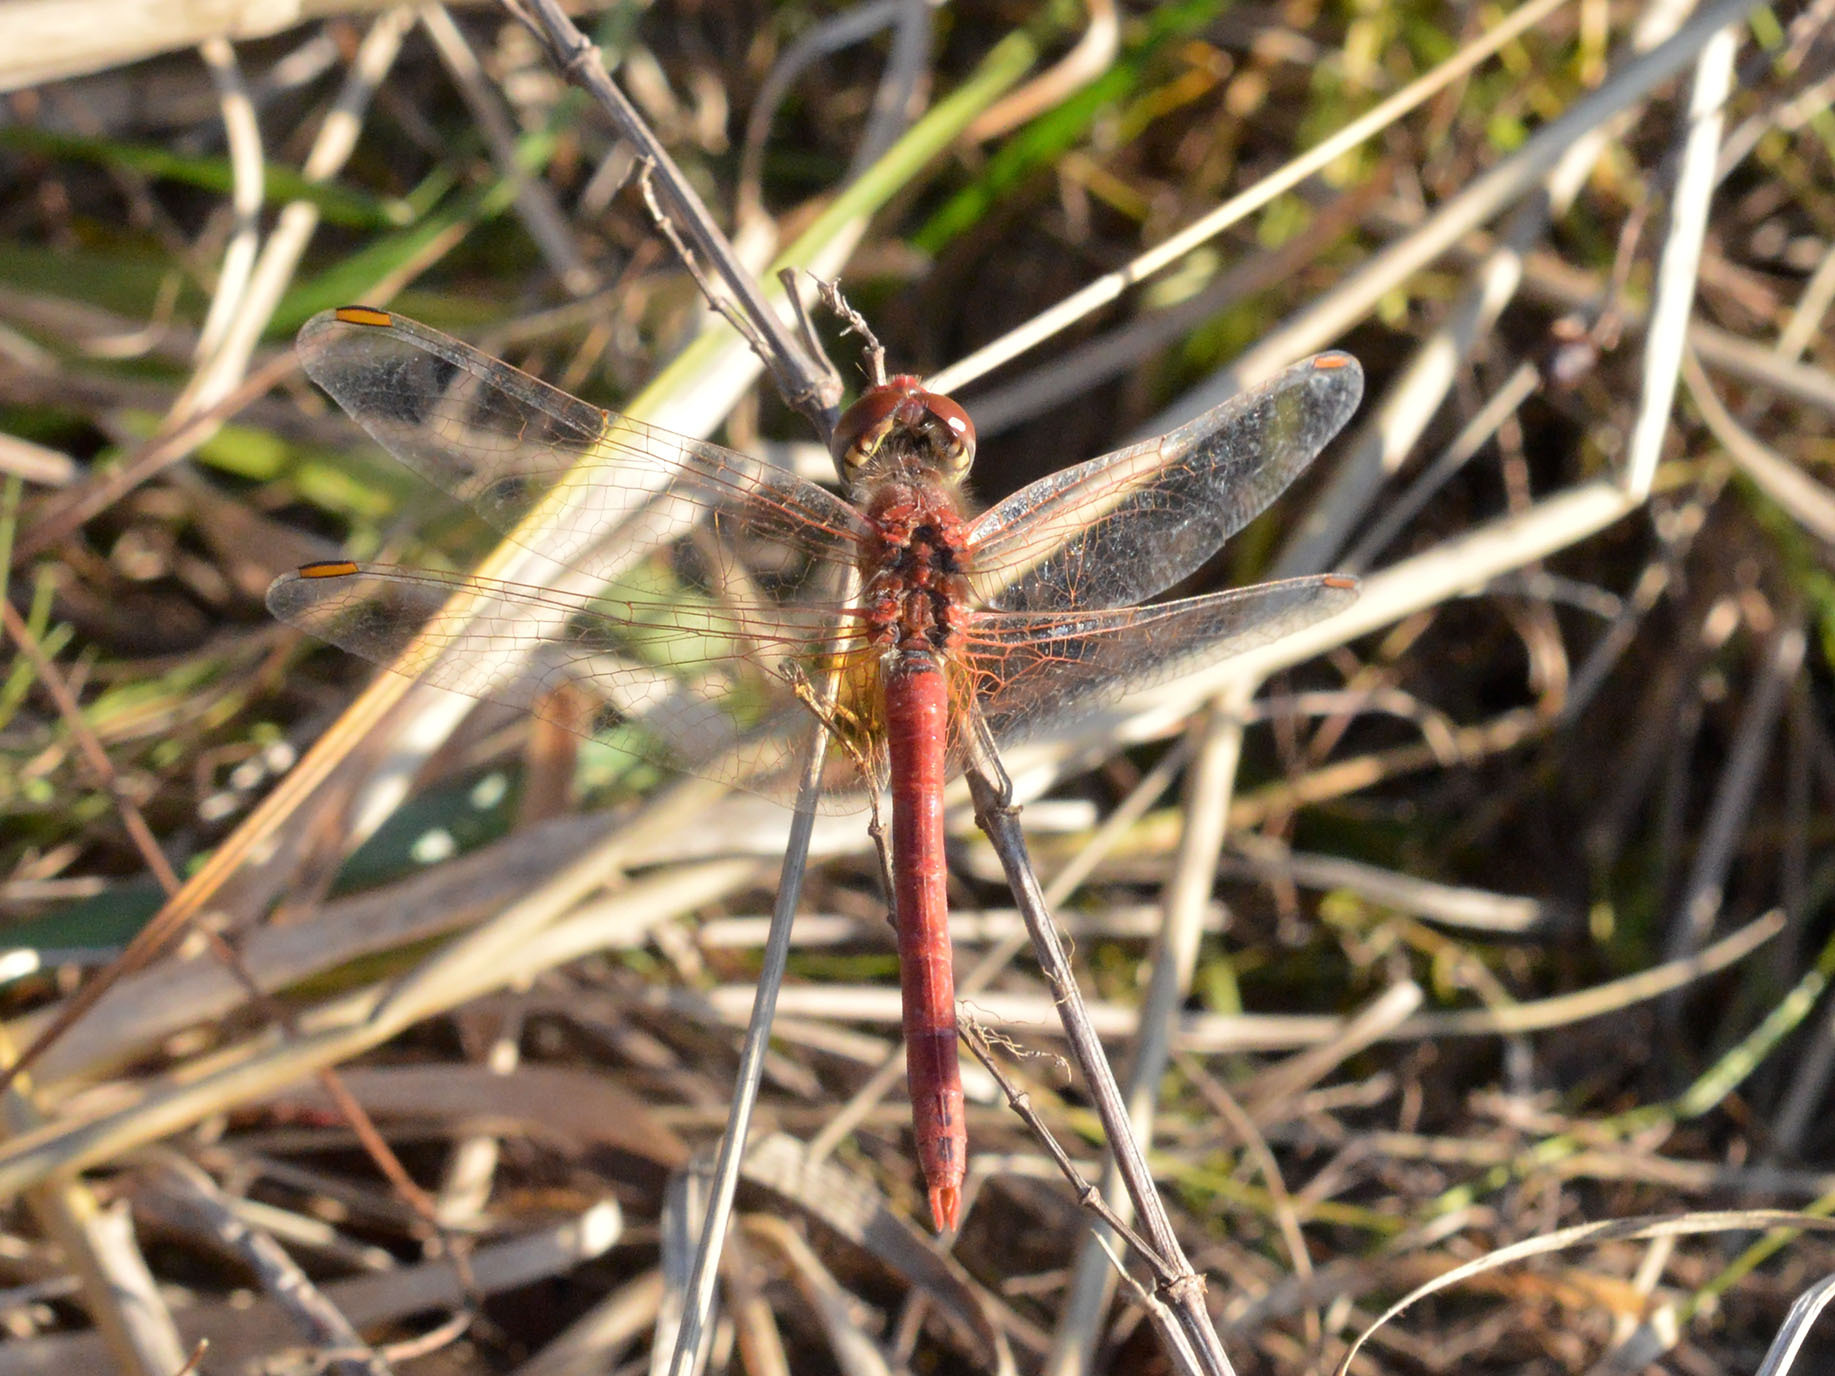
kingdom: Animalia
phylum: Arthropoda
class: Insecta
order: Odonata
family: Libellulidae
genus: Sympetrum
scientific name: Sympetrum fonscolombii
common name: Red-veined darter
